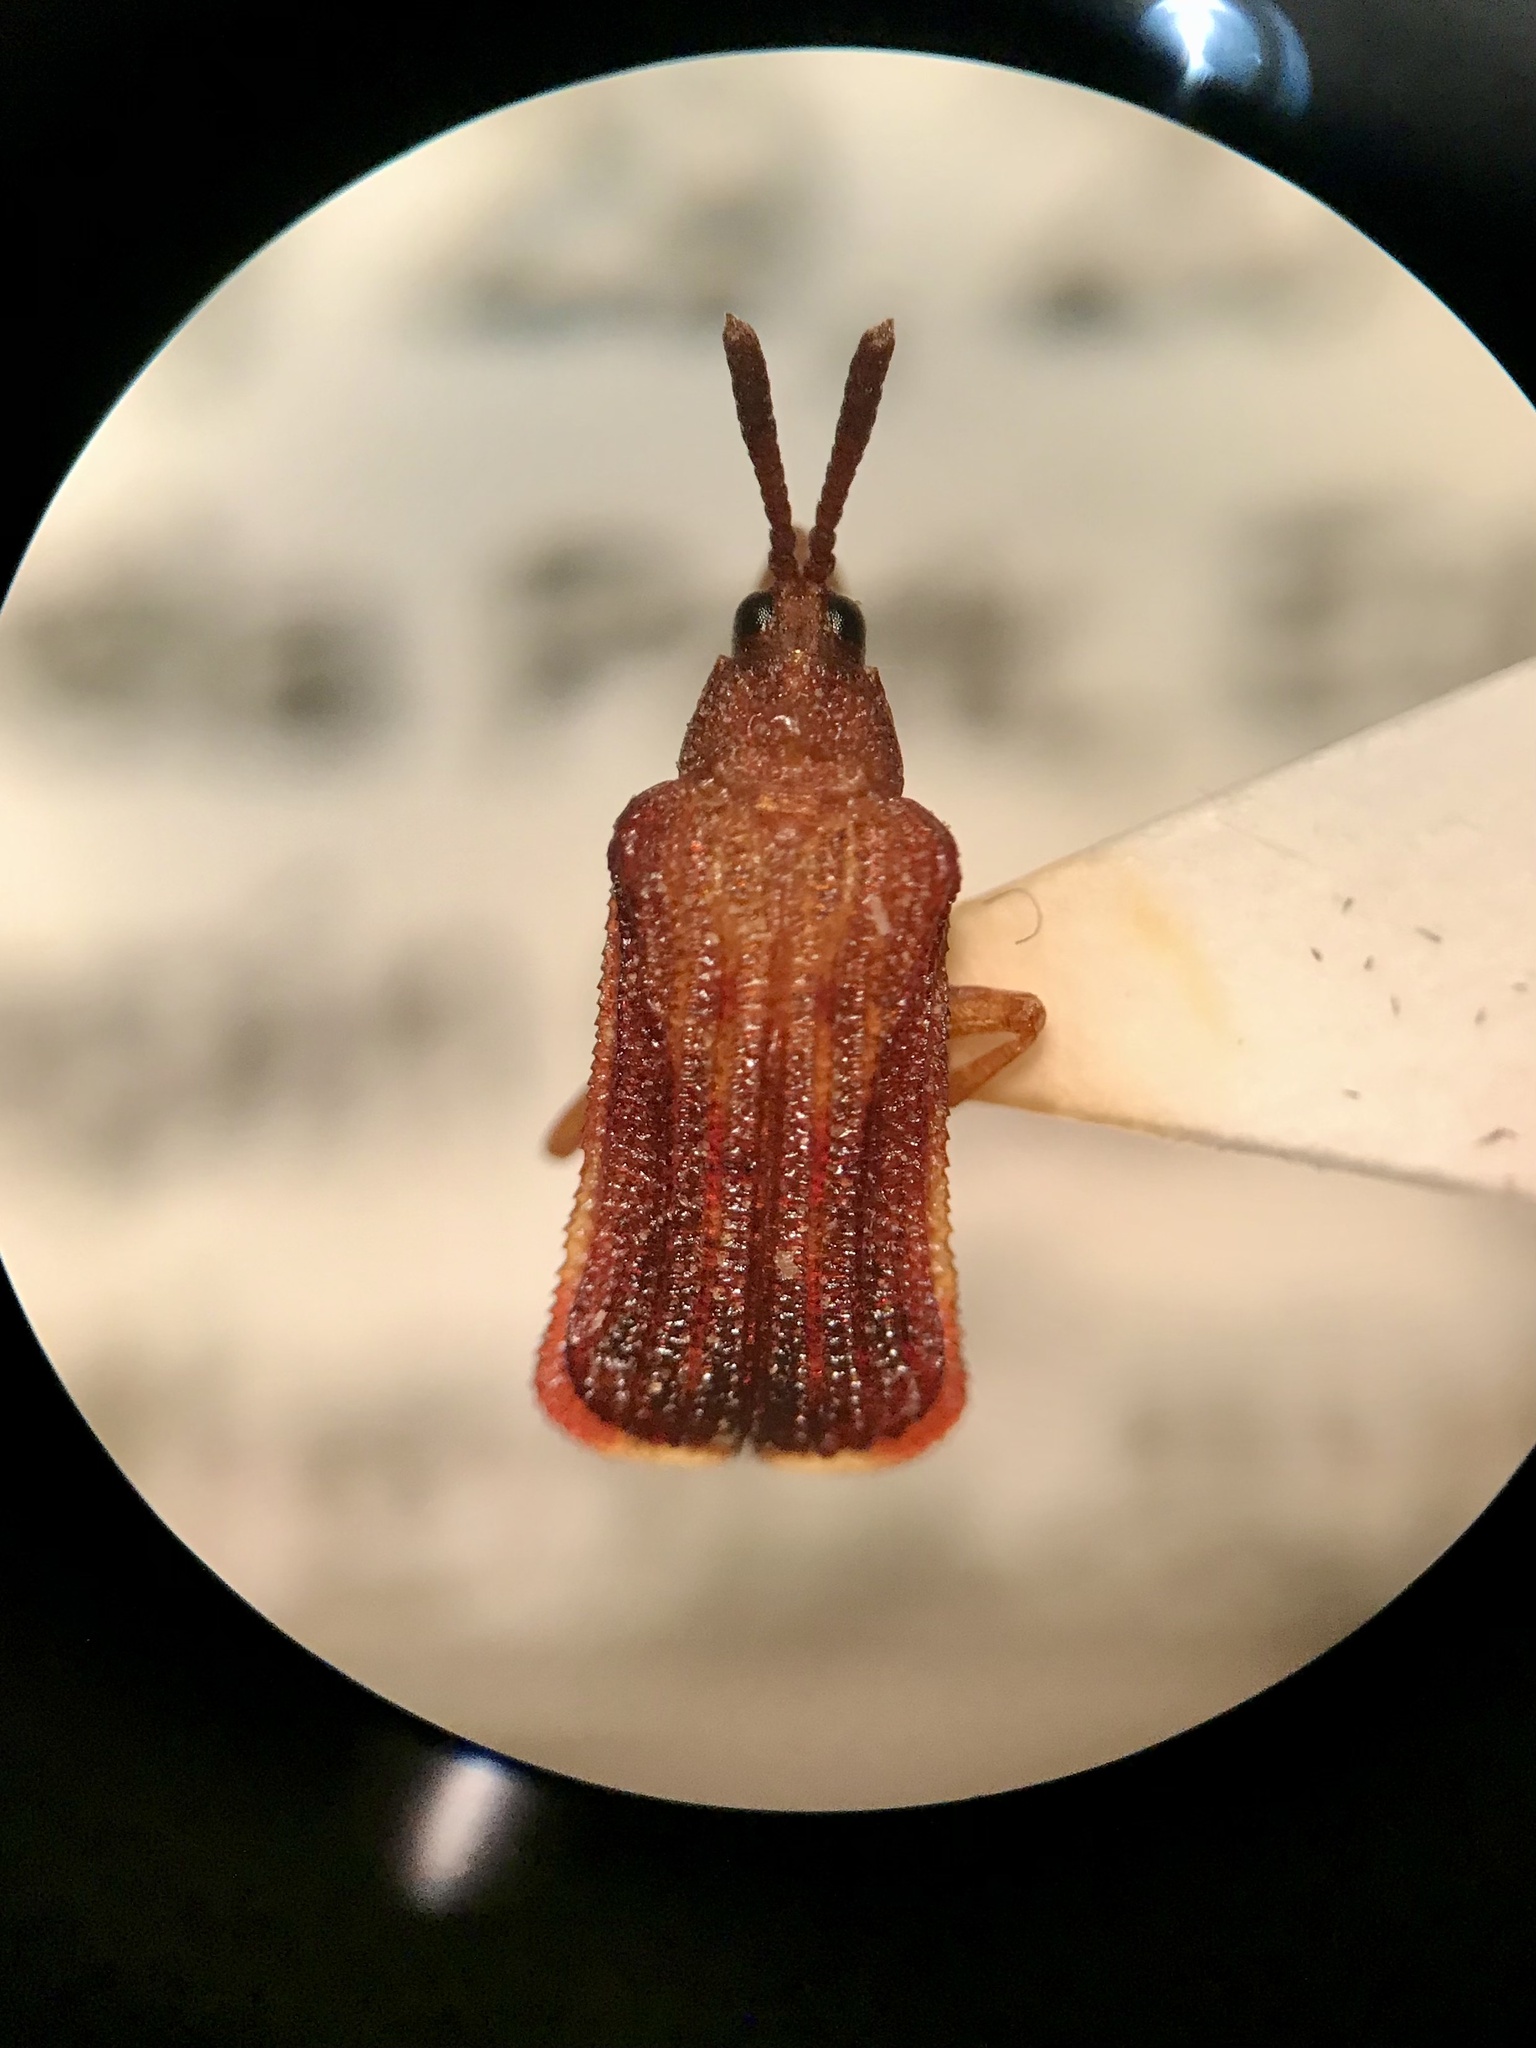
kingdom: Animalia
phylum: Arthropoda
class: Insecta
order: Coleoptera
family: Chrysomelidae
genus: Baliosus
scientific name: Baliosus nervosus
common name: Basswood leaf miner
